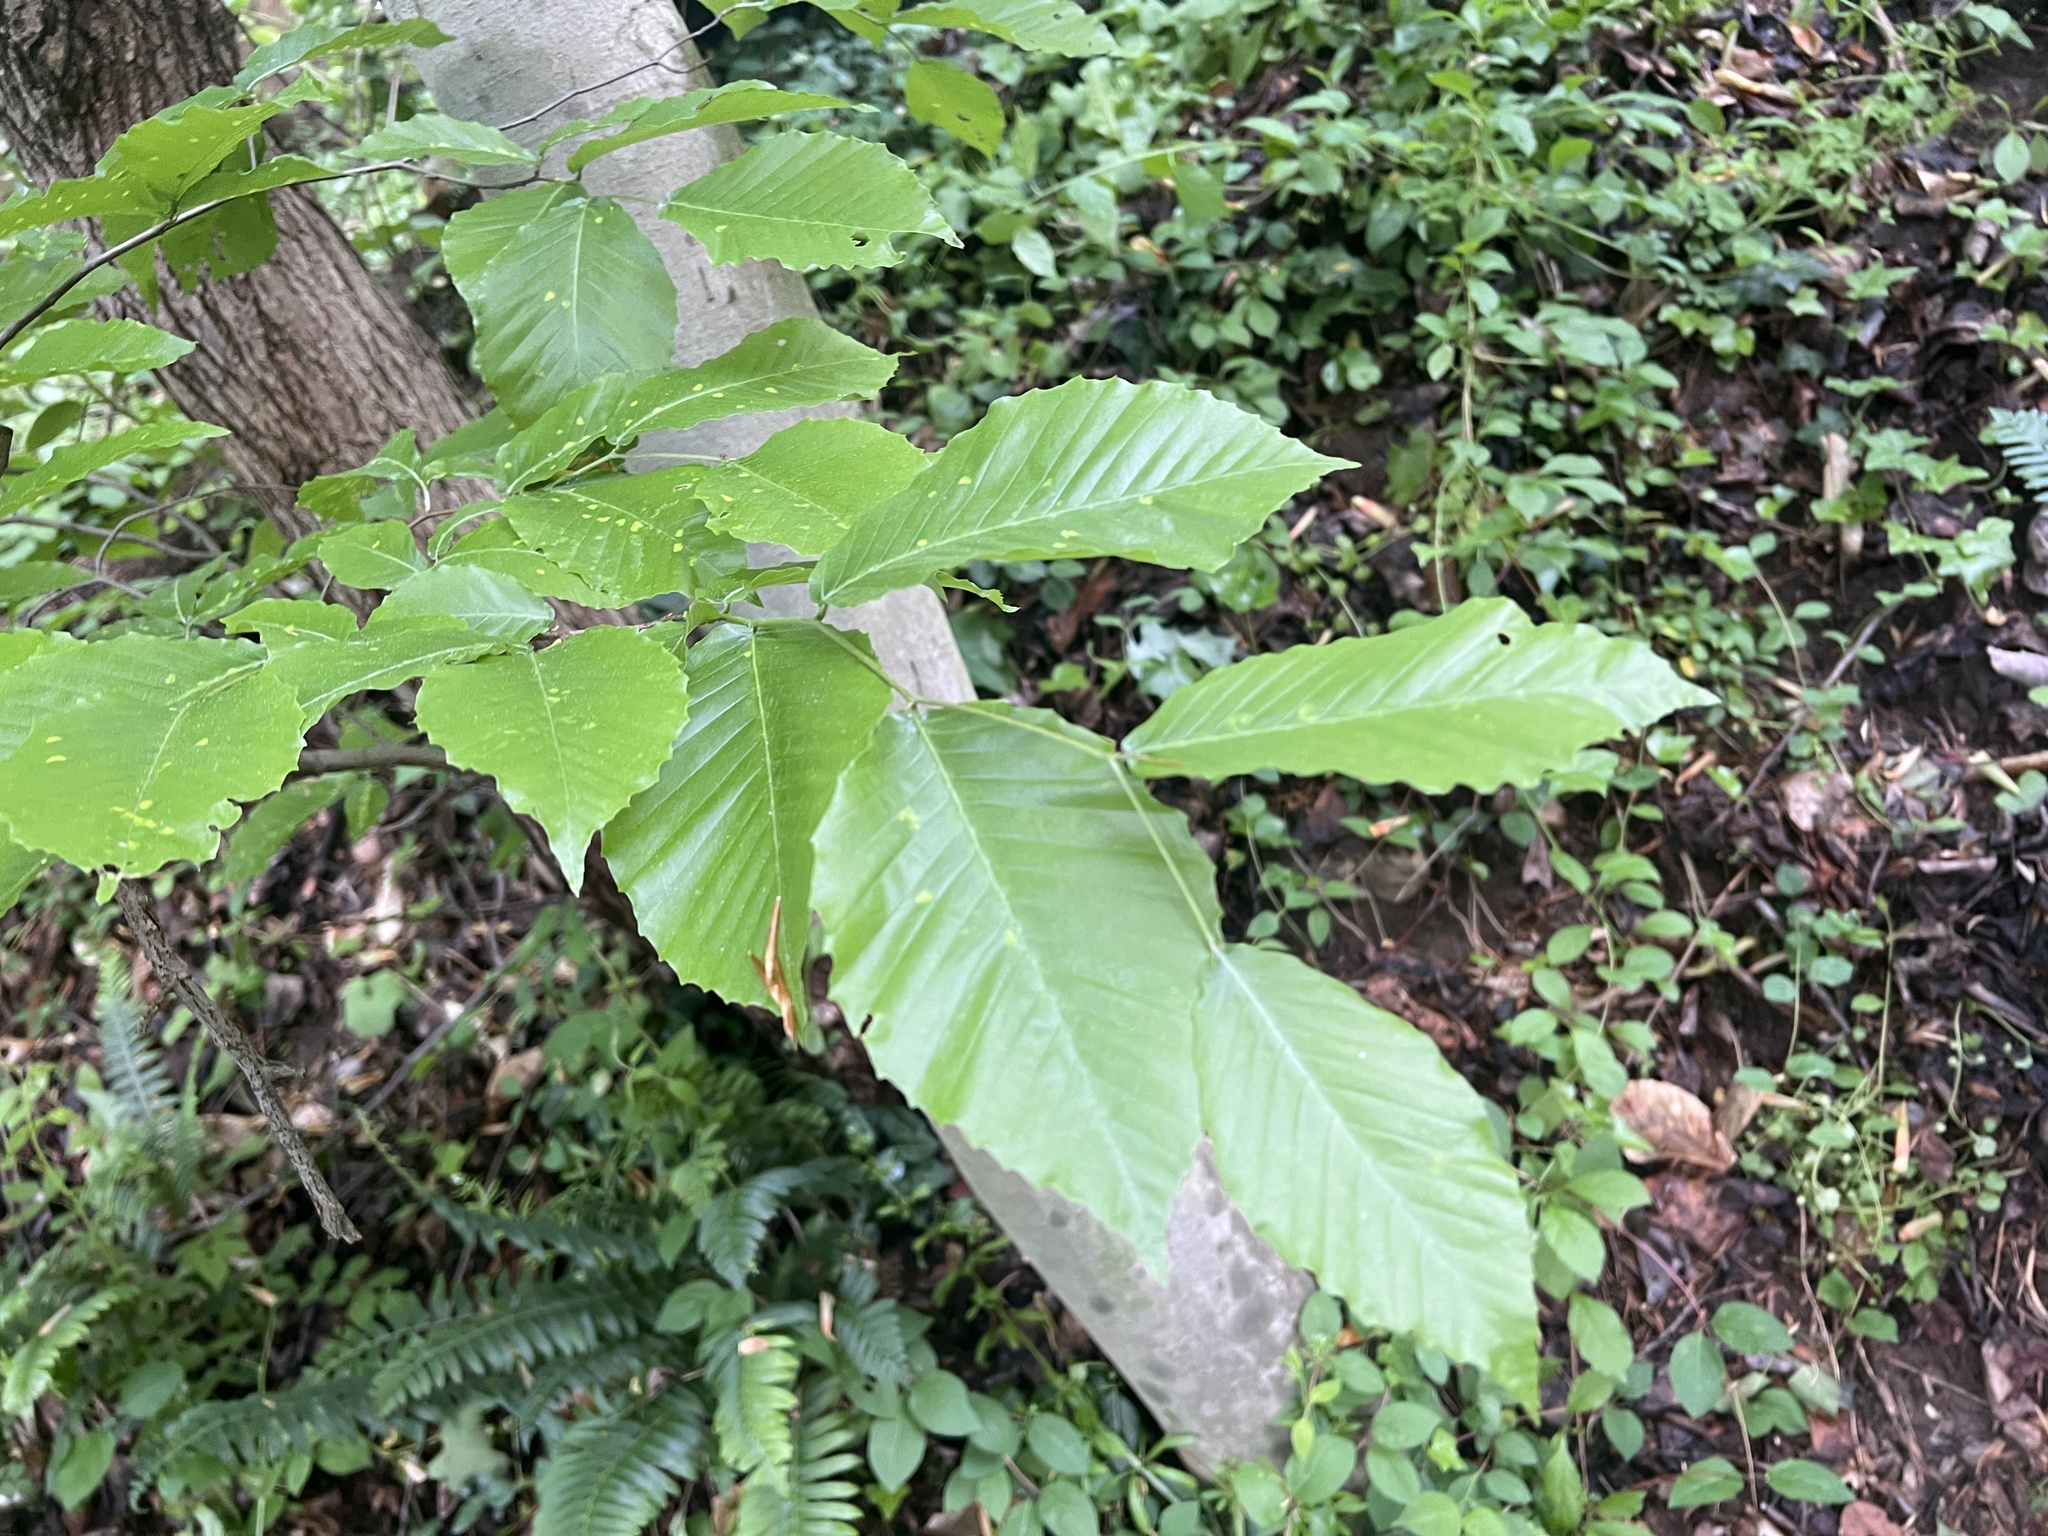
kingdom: Plantae
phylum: Tracheophyta
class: Magnoliopsida
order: Fagales
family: Fagaceae
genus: Fagus
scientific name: Fagus grandifolia
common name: American beech
